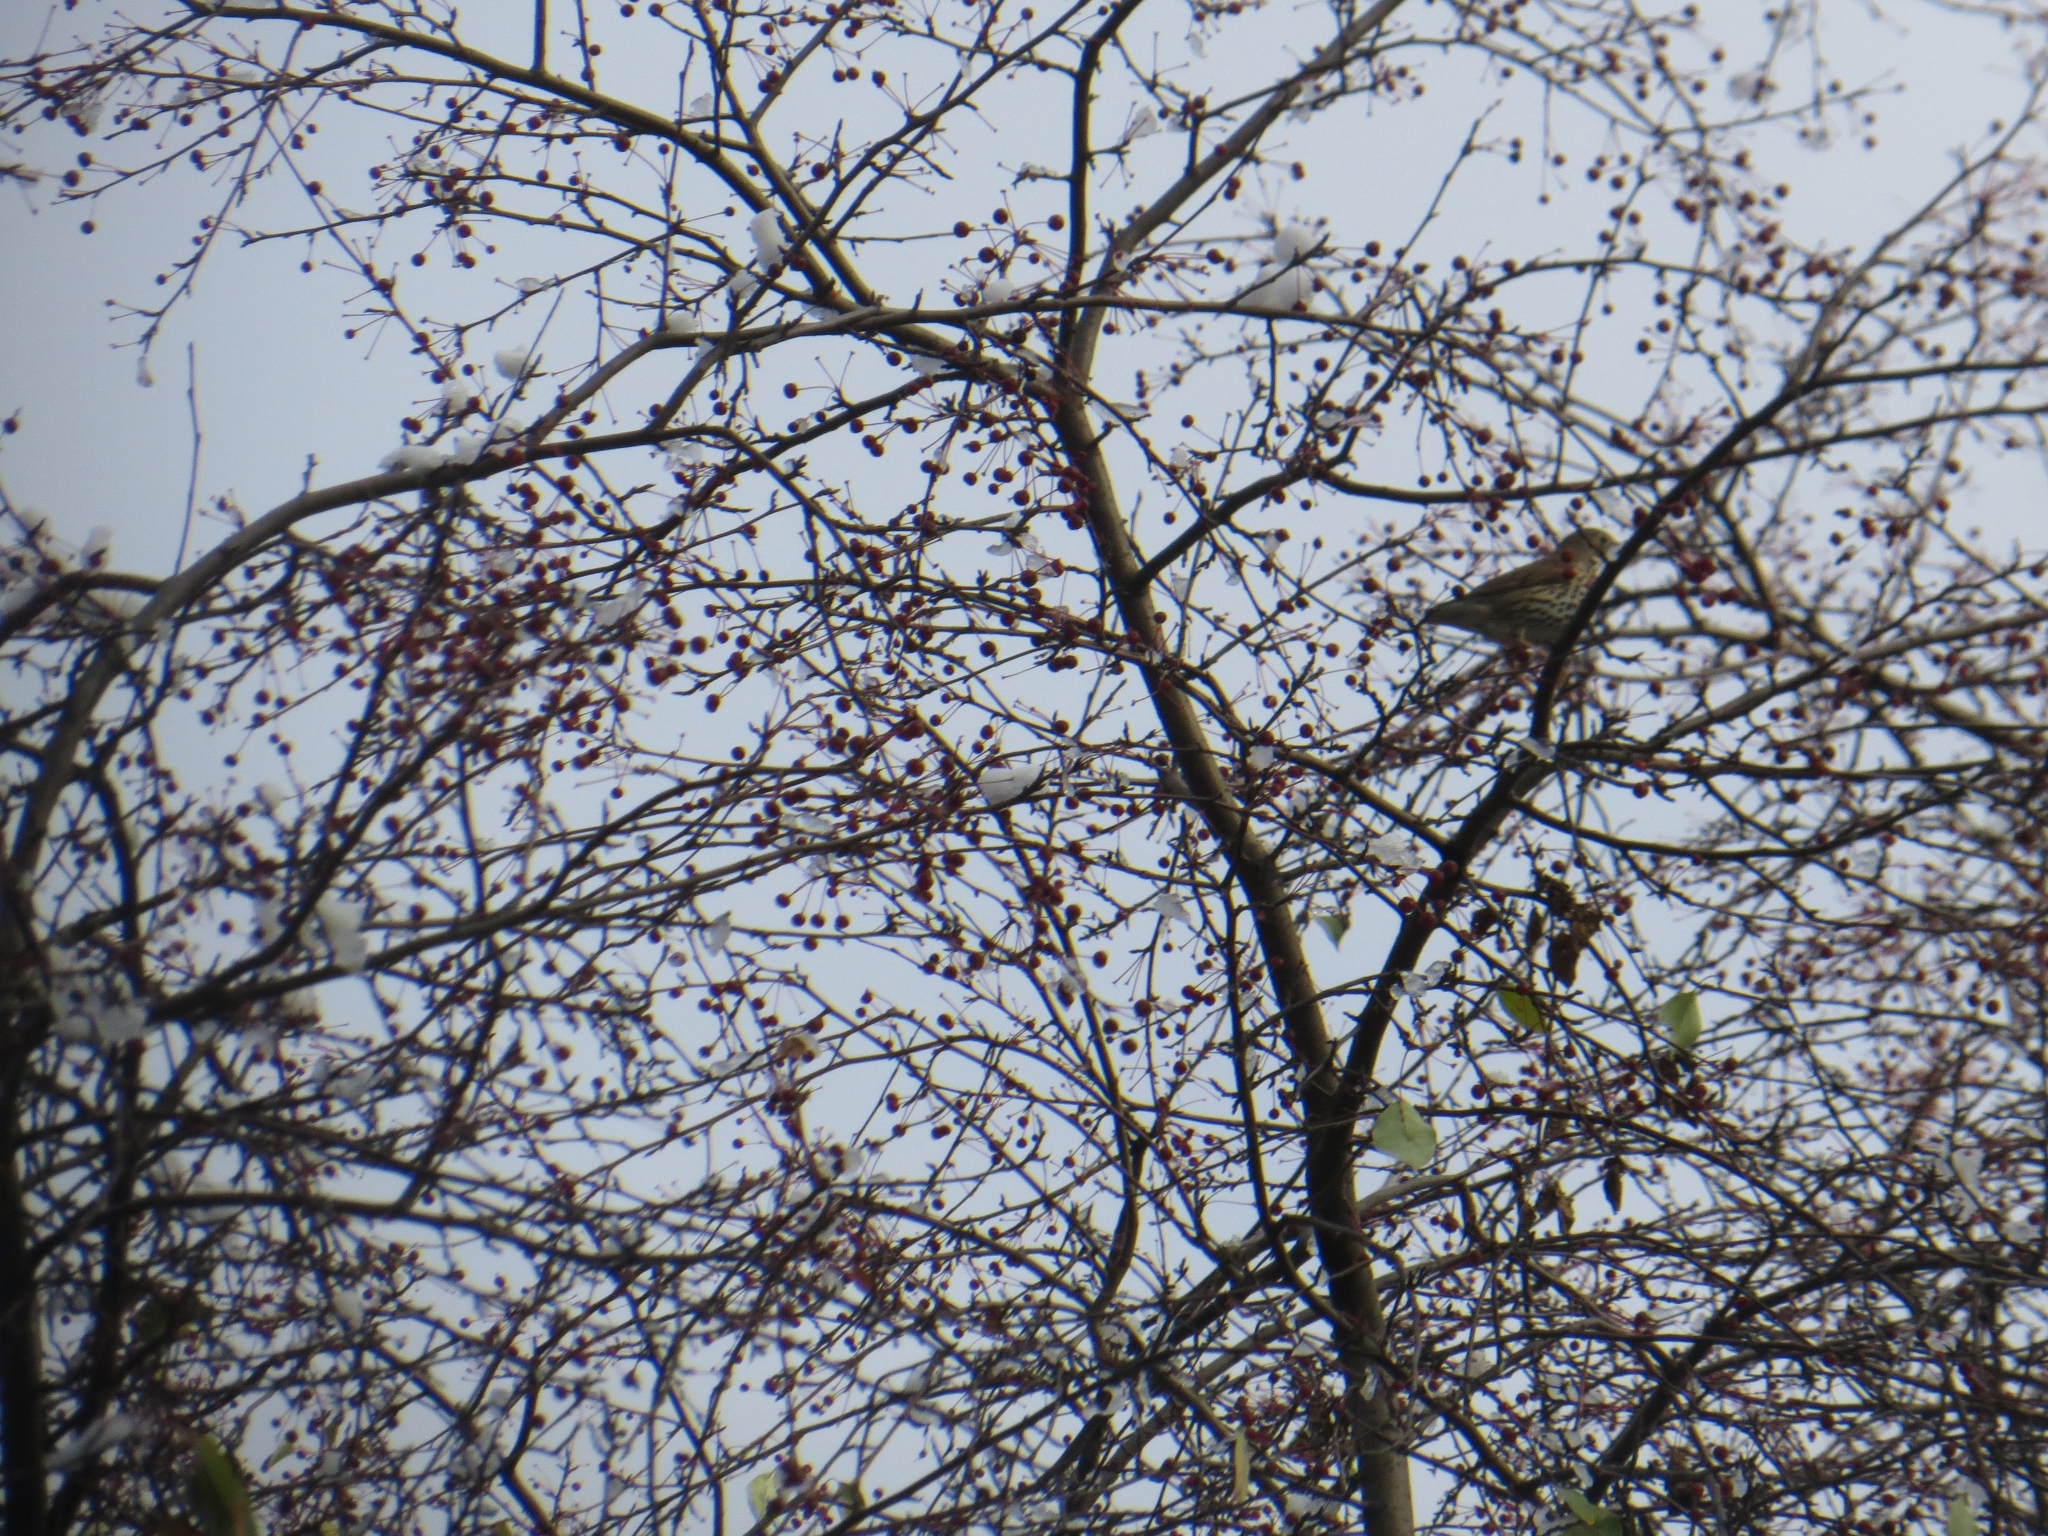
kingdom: Animalia
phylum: Chordata
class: Aves
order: Passeriformes
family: Turdidae
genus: Turdus
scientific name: Turdus philomelos
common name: Song thrush
